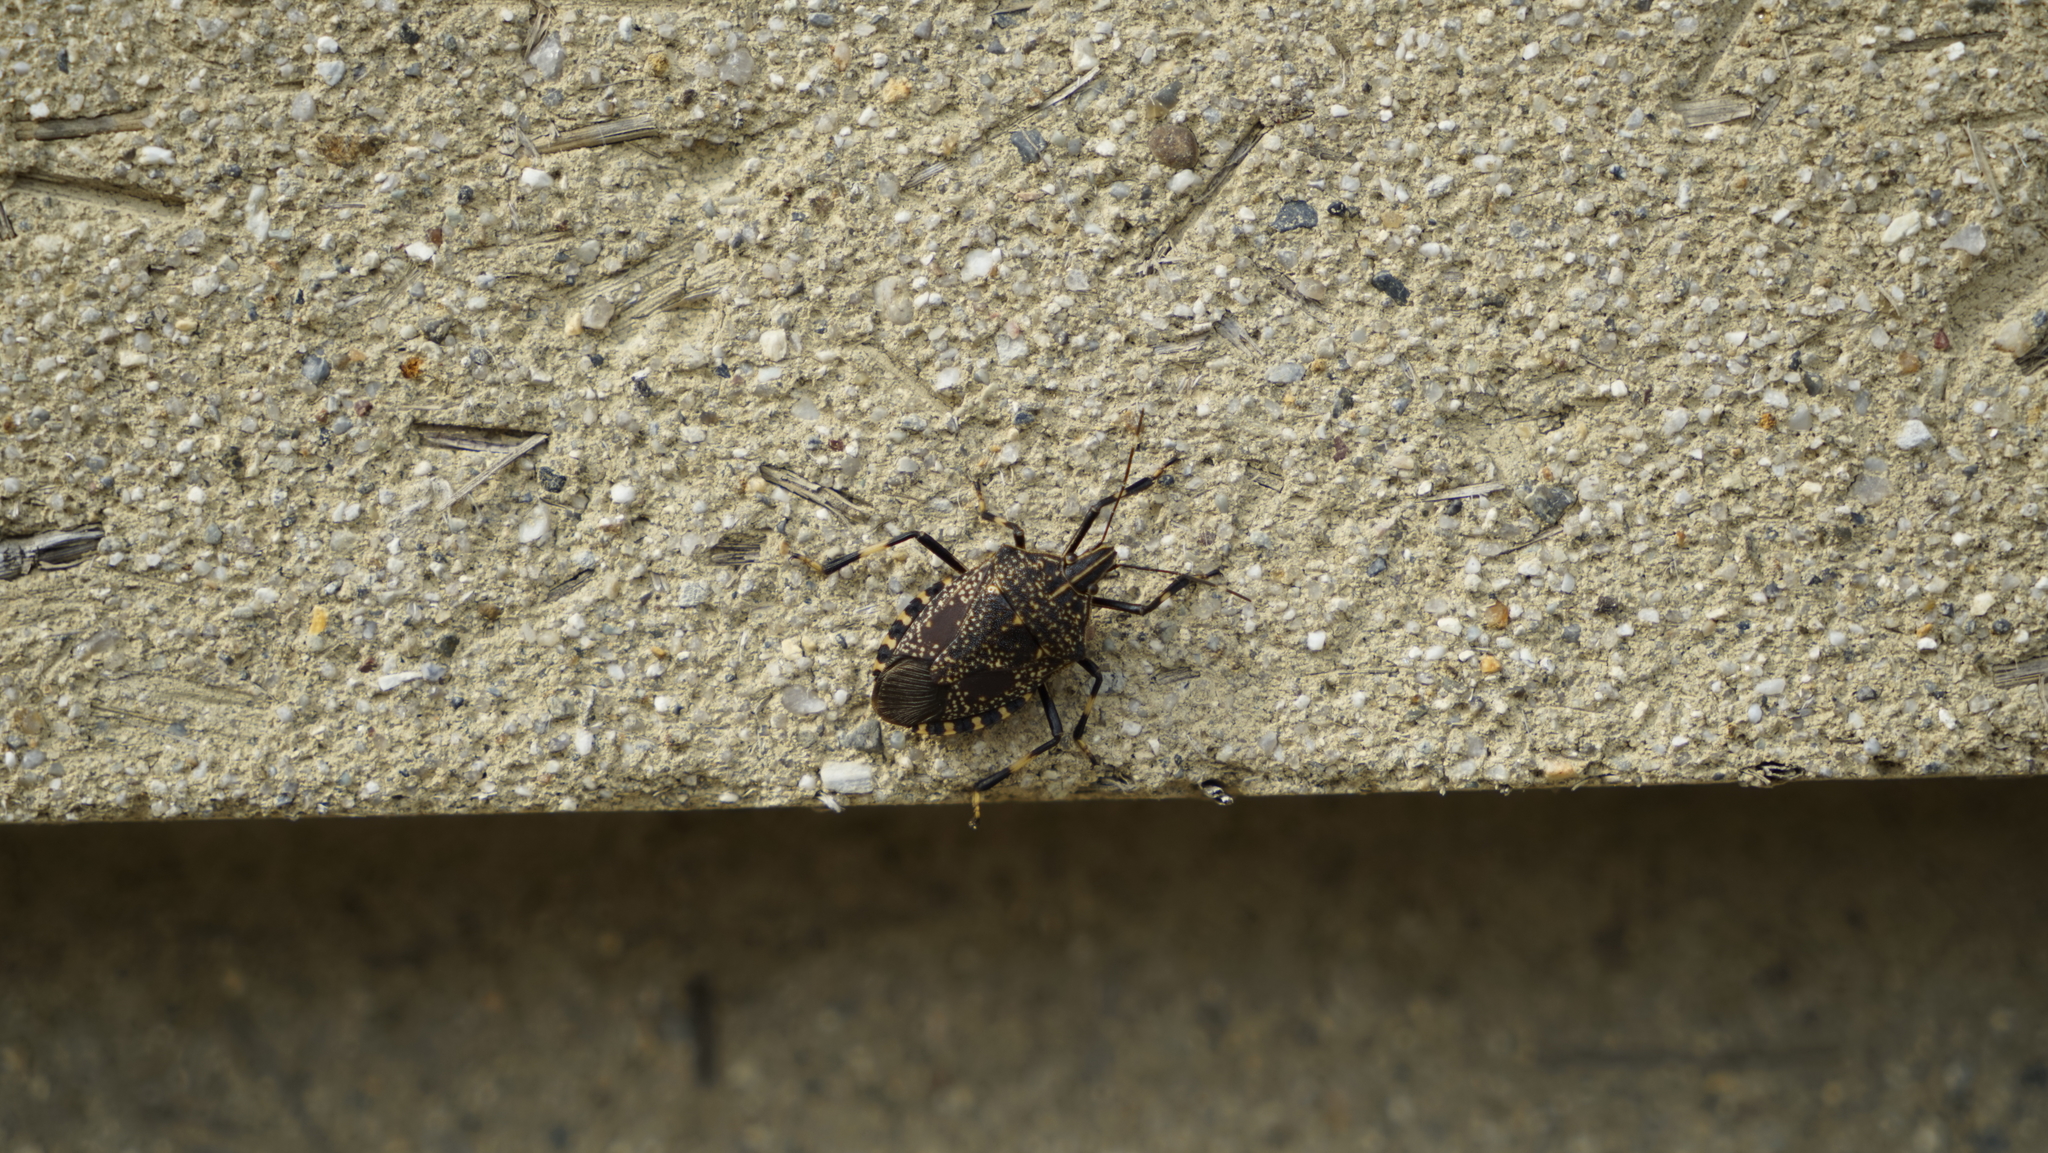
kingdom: Animalia
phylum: Arthropoda
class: Insecta
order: Hemiptera
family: Pentatomidae
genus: Erthesina
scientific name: Erthesina fullo
